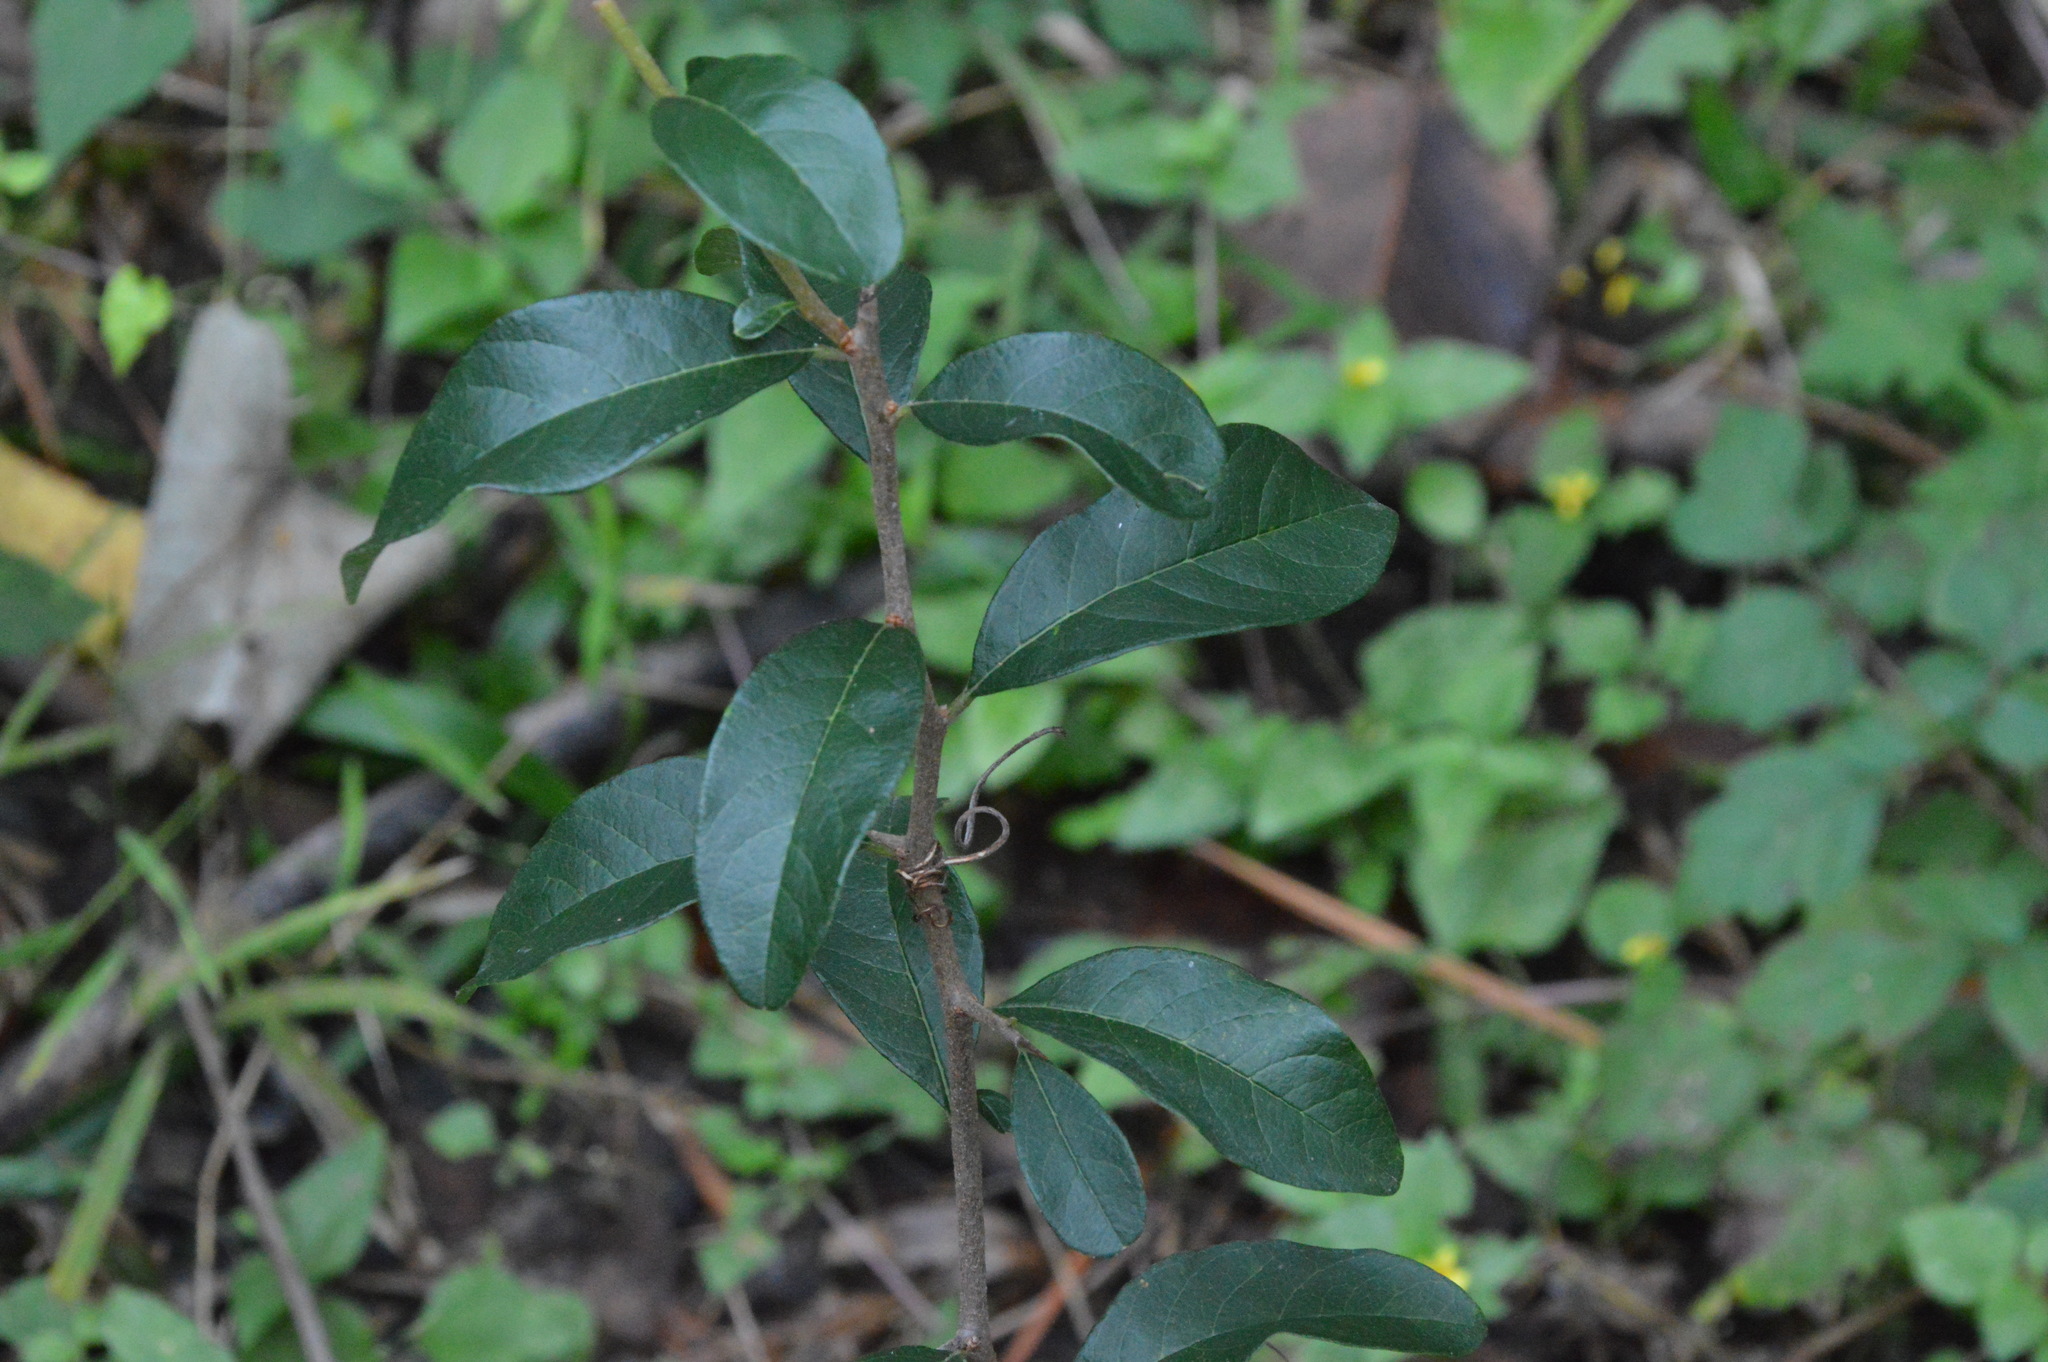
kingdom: Plantae
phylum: Tracheophyta
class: Magnoliopsida
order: Ericales
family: Sapotaceae
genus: Sideroxylon
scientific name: Sideroxylon lanuginosum
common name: Chittamwood
